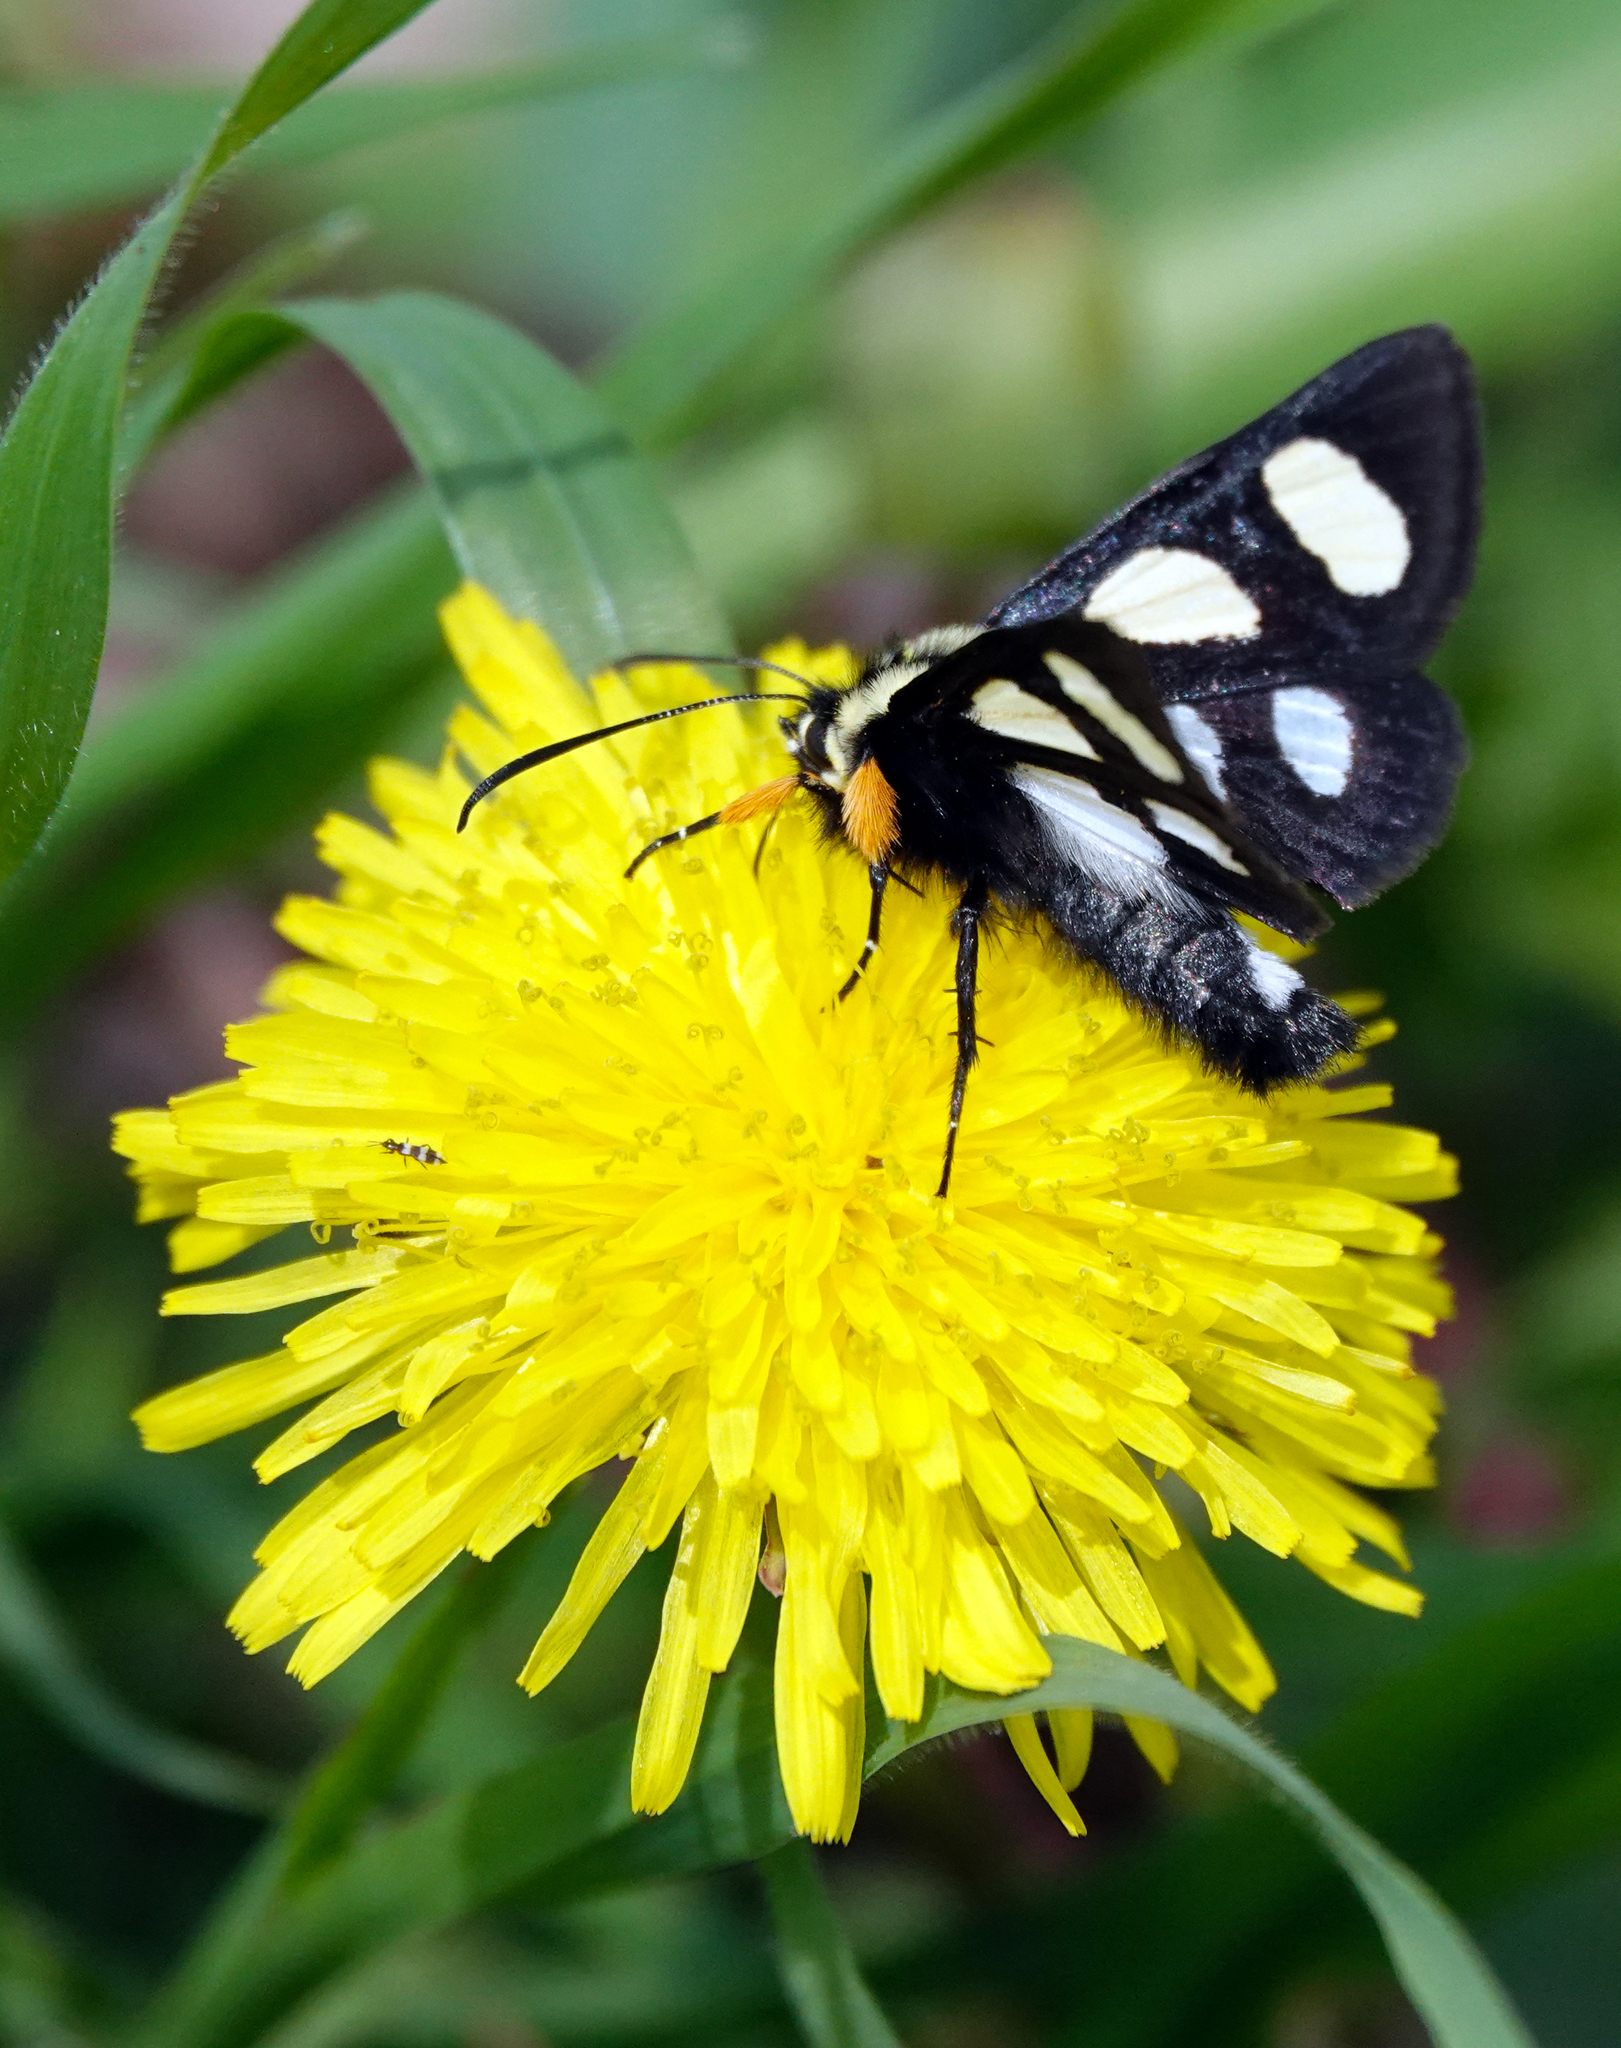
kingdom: Animalia
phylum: Arthropoda
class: Insecta
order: Lepidoptera
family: Noctuidae
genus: Alypia
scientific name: Alypia octomaculata
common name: Eight-spotted forester
